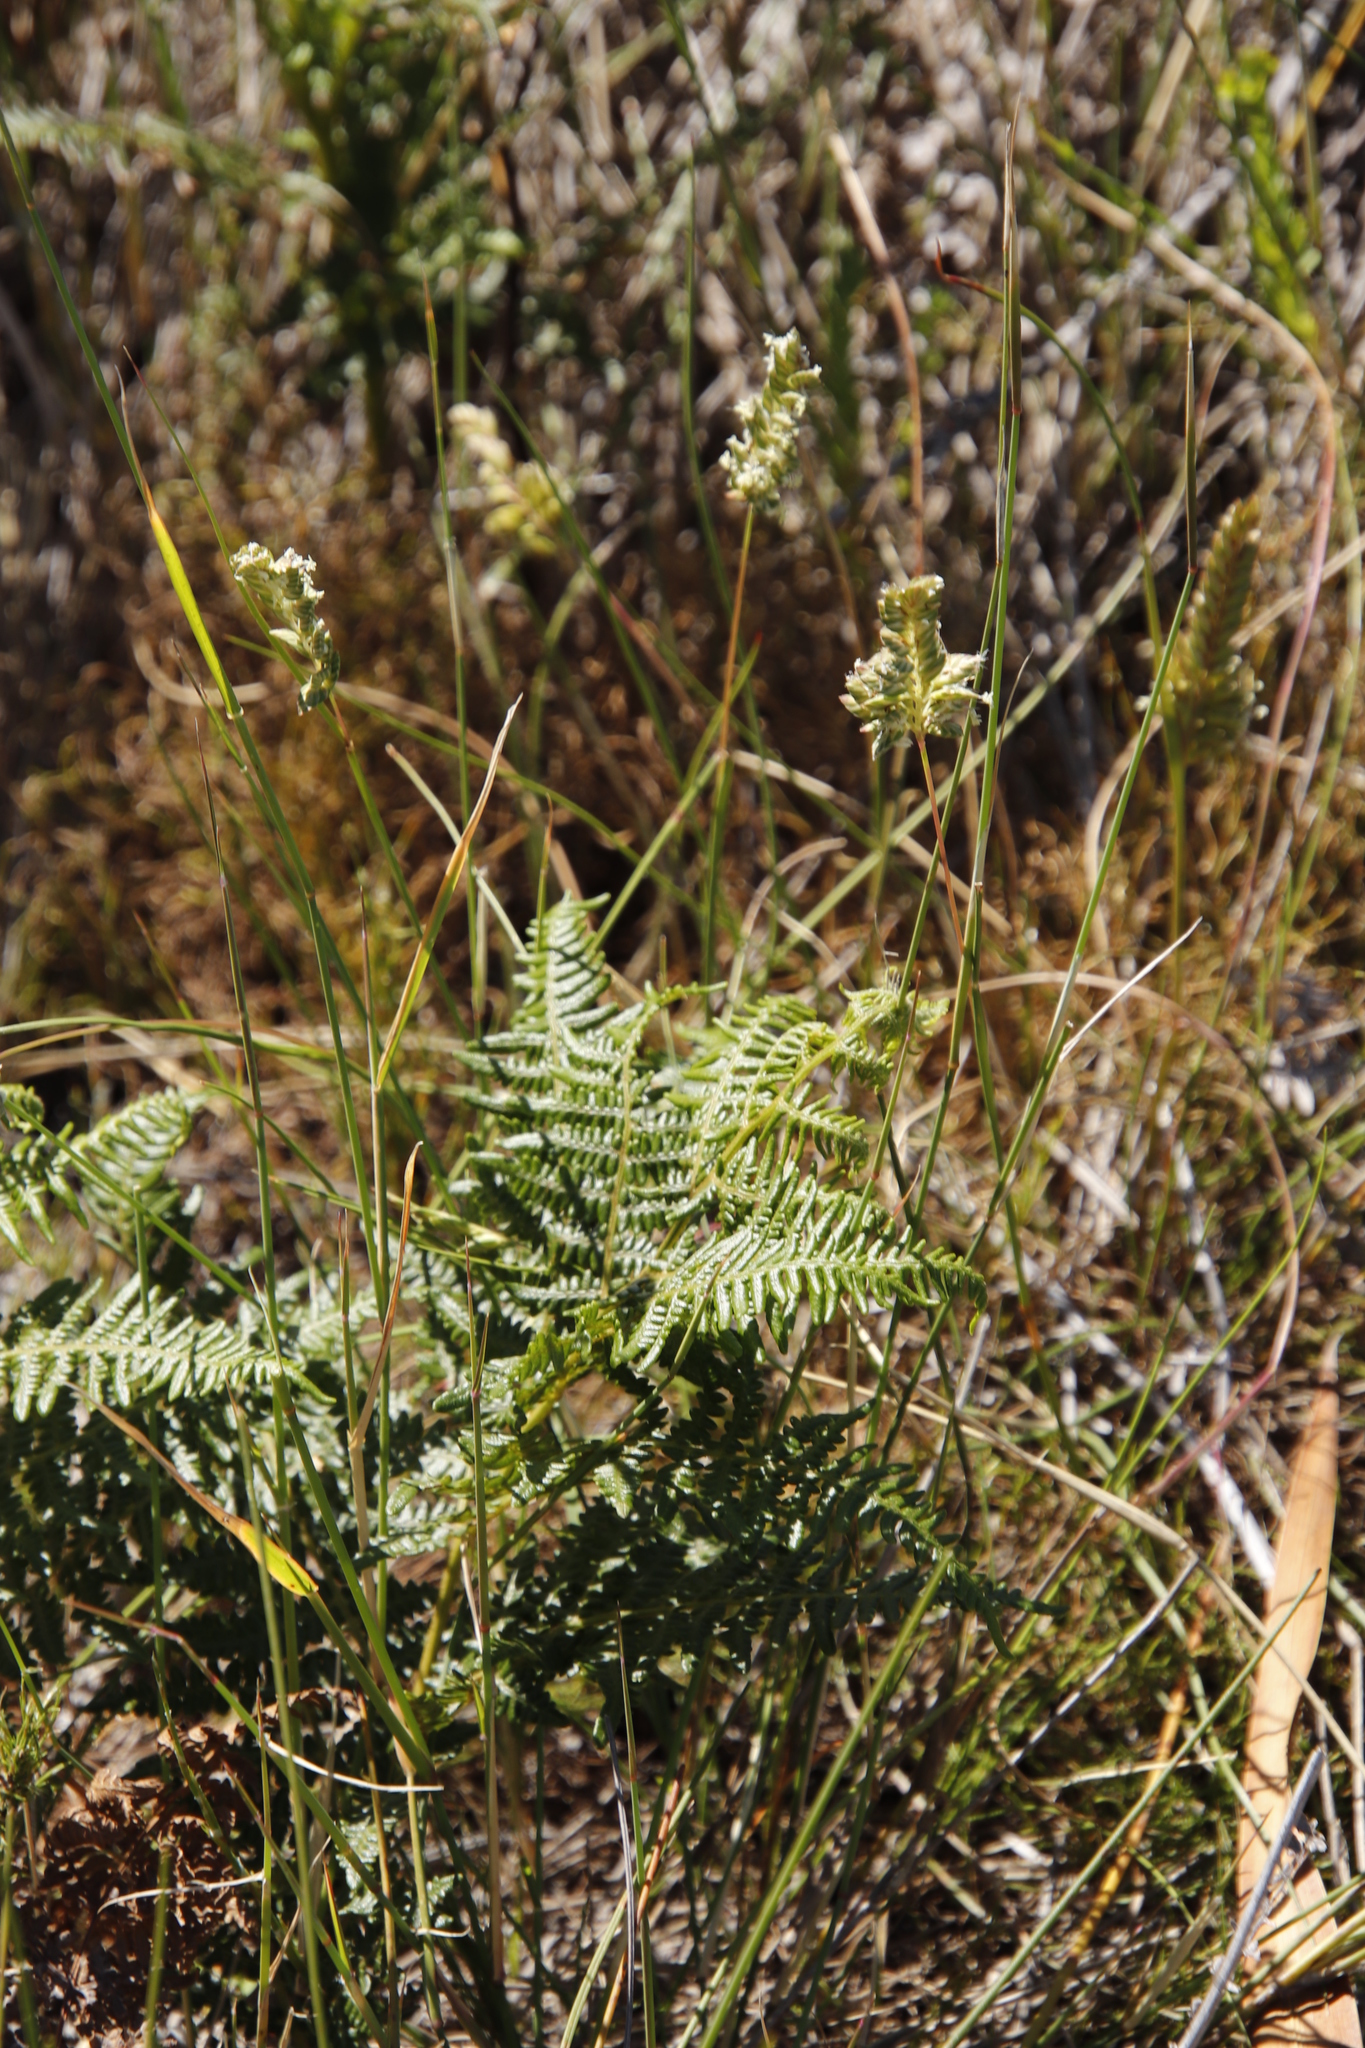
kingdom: Plantae
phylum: Tracheophyta
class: Polypodiopsida
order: Polypodiales
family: Dennstaedtiaceae
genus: Pteridium
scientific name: Pteridium aquilinum
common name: Bracken
